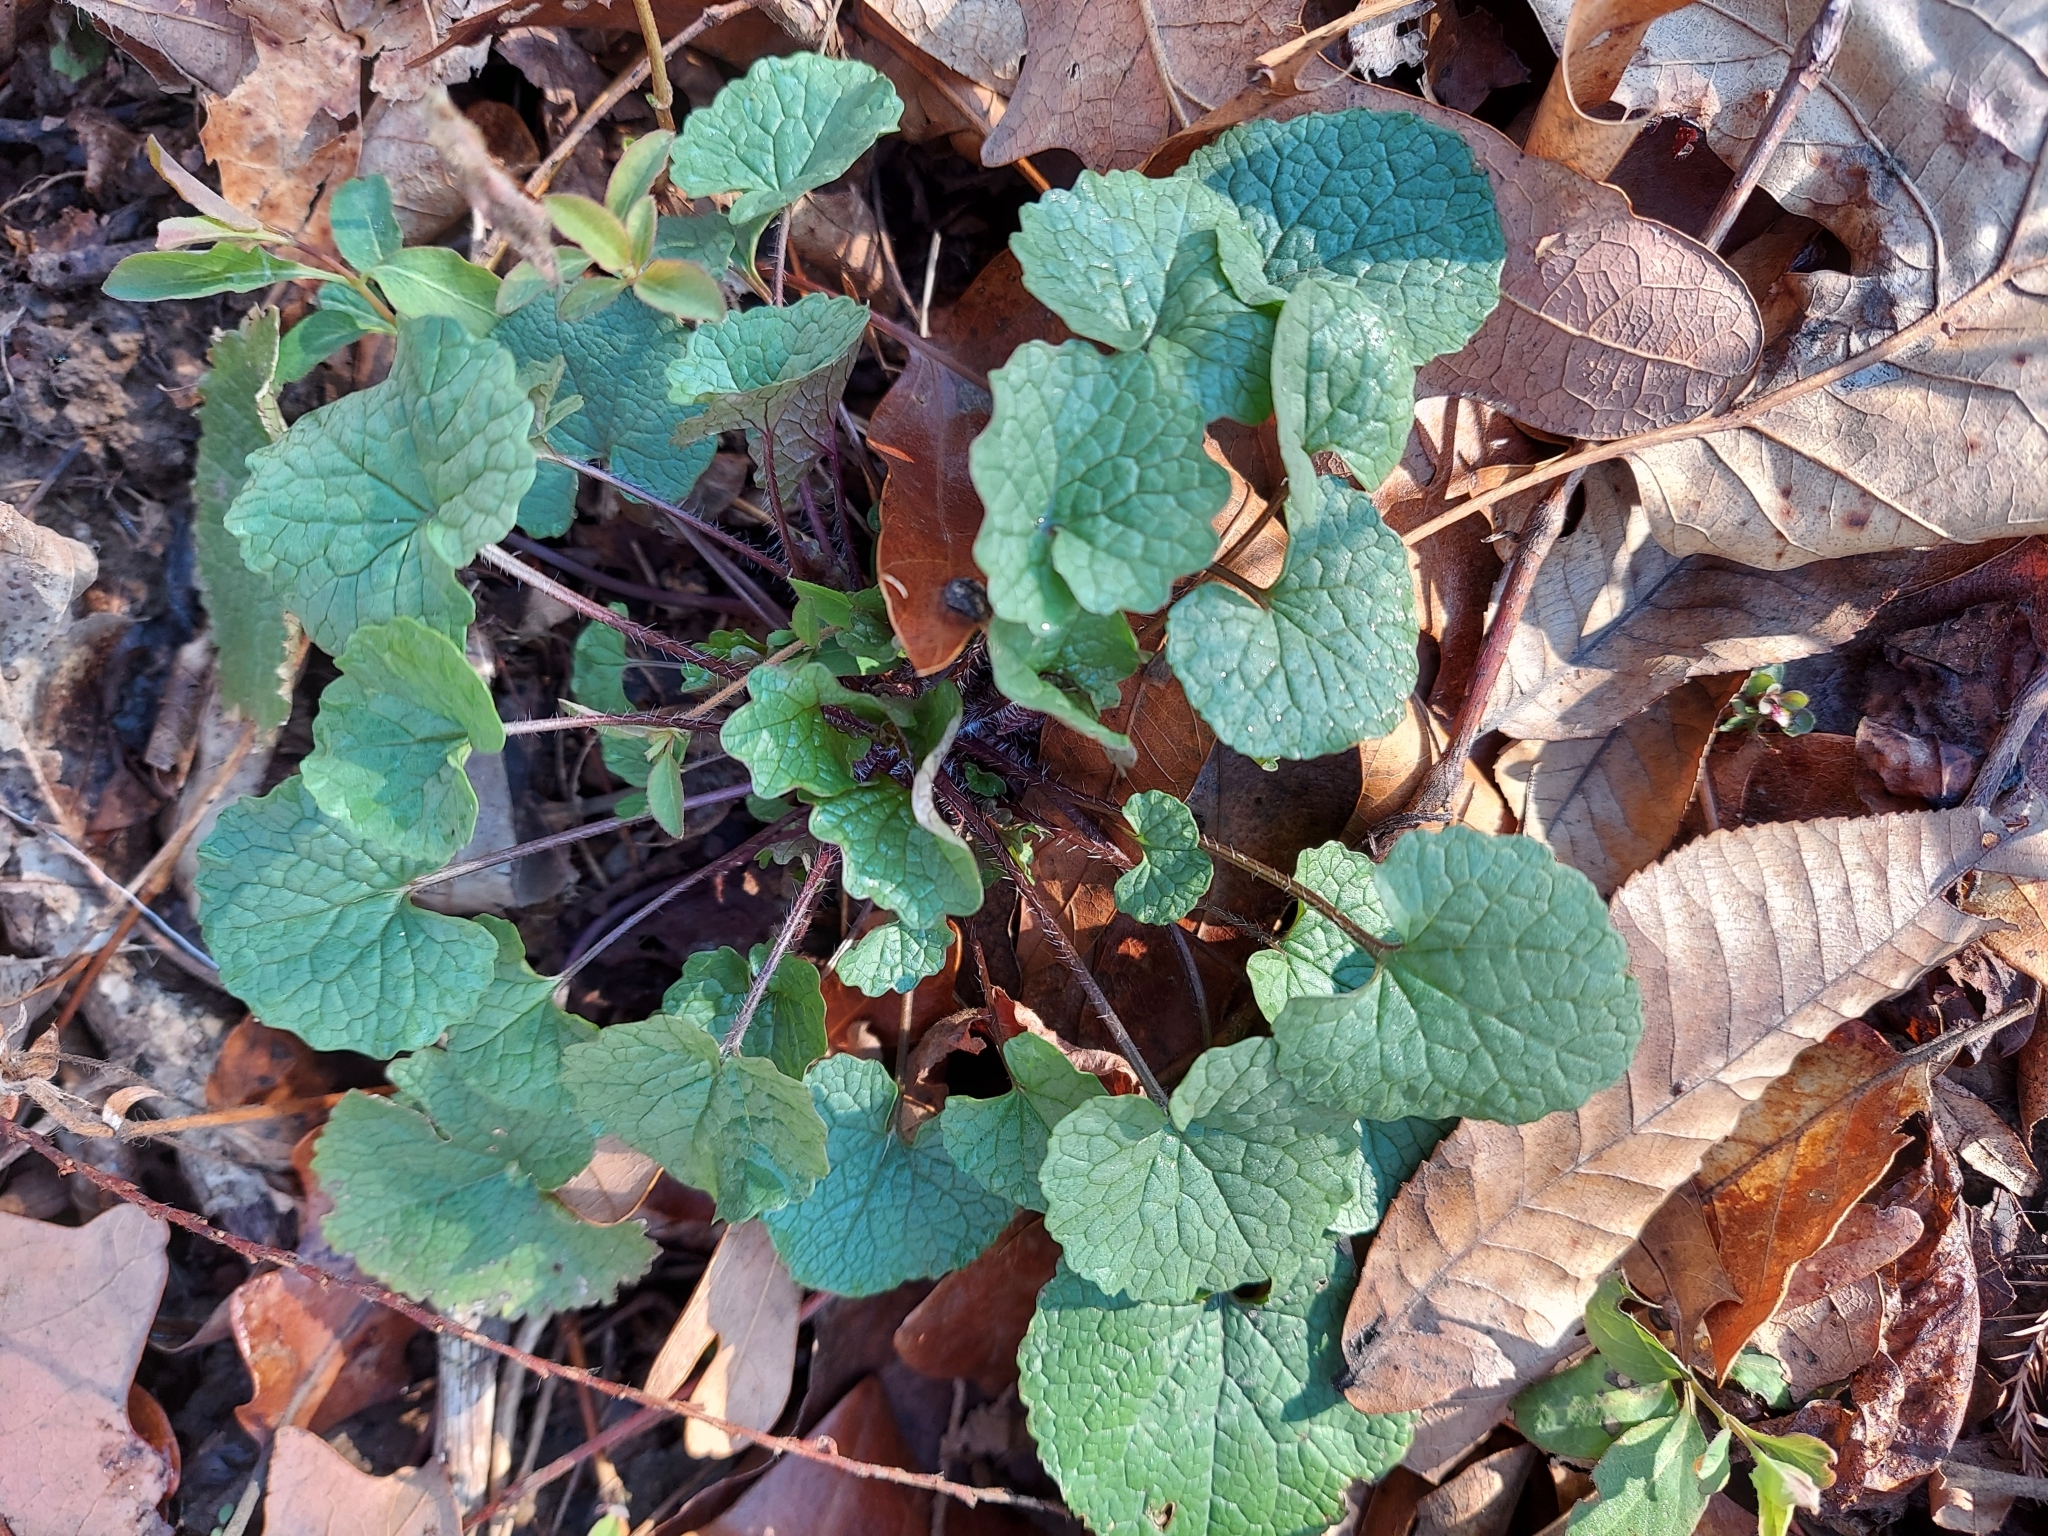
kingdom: Plantae
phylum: Tracheophyta
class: Magnoliopsida
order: Brassicales
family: Brassicaceae
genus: Alliaria
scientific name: Alliaria petiolata
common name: Garlic mustard
